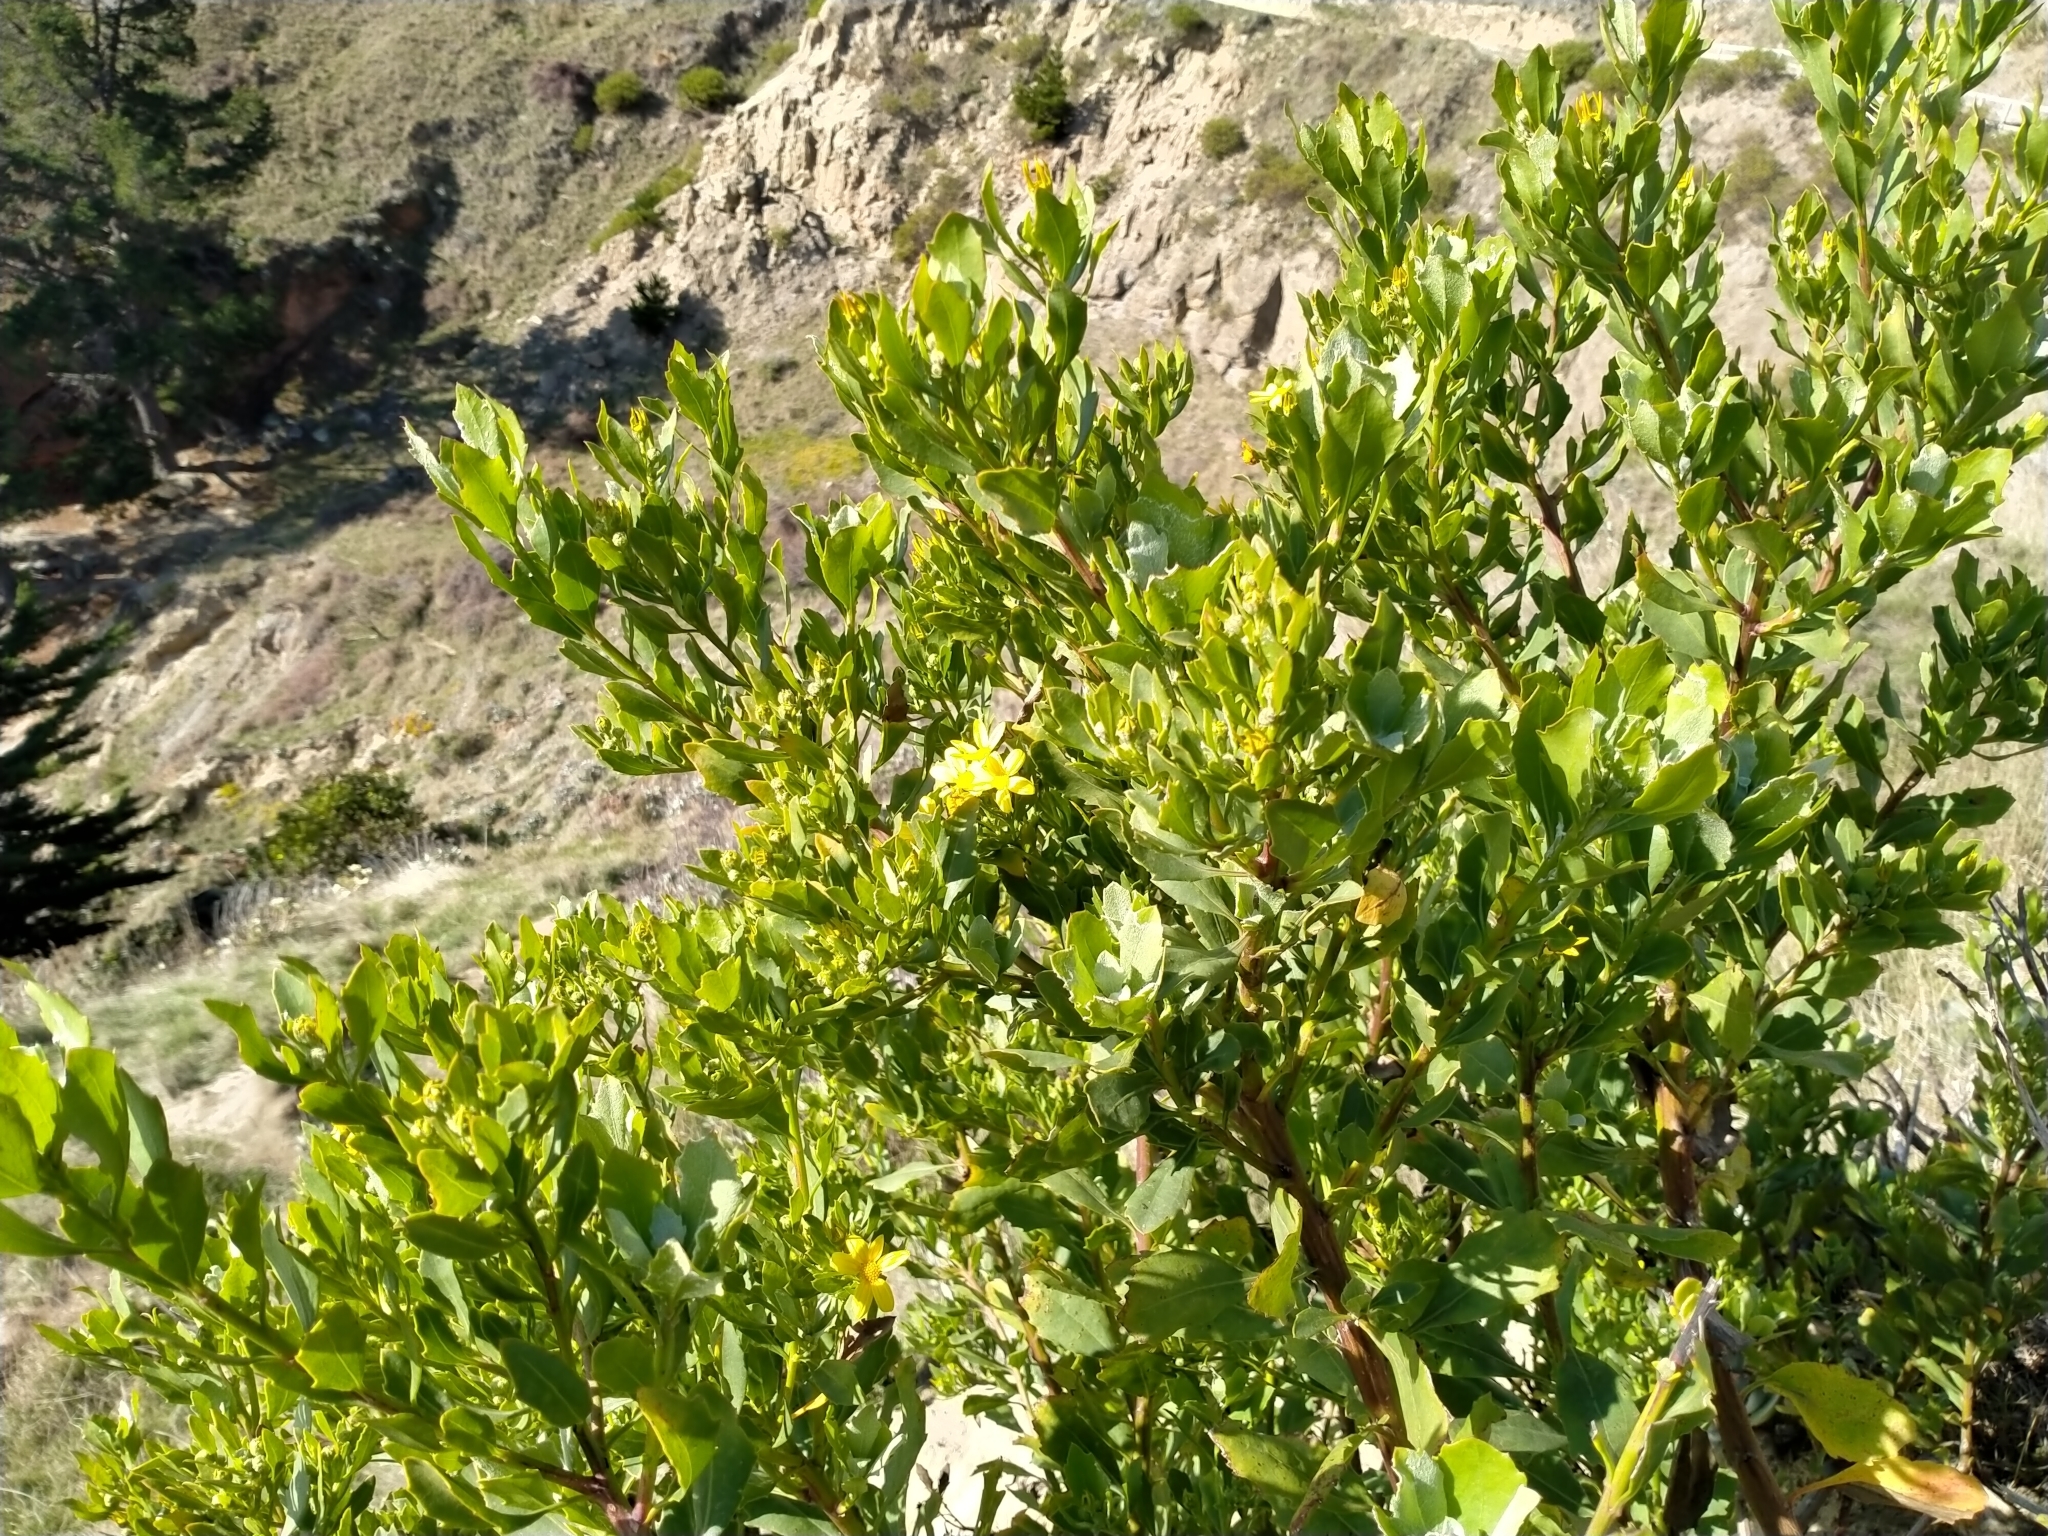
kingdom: Plantae
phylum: Tracheophyta
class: Magnoliopsida
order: Asterales
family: Asteraceae
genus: Osteospermum
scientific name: Osteospermum moniliferum
